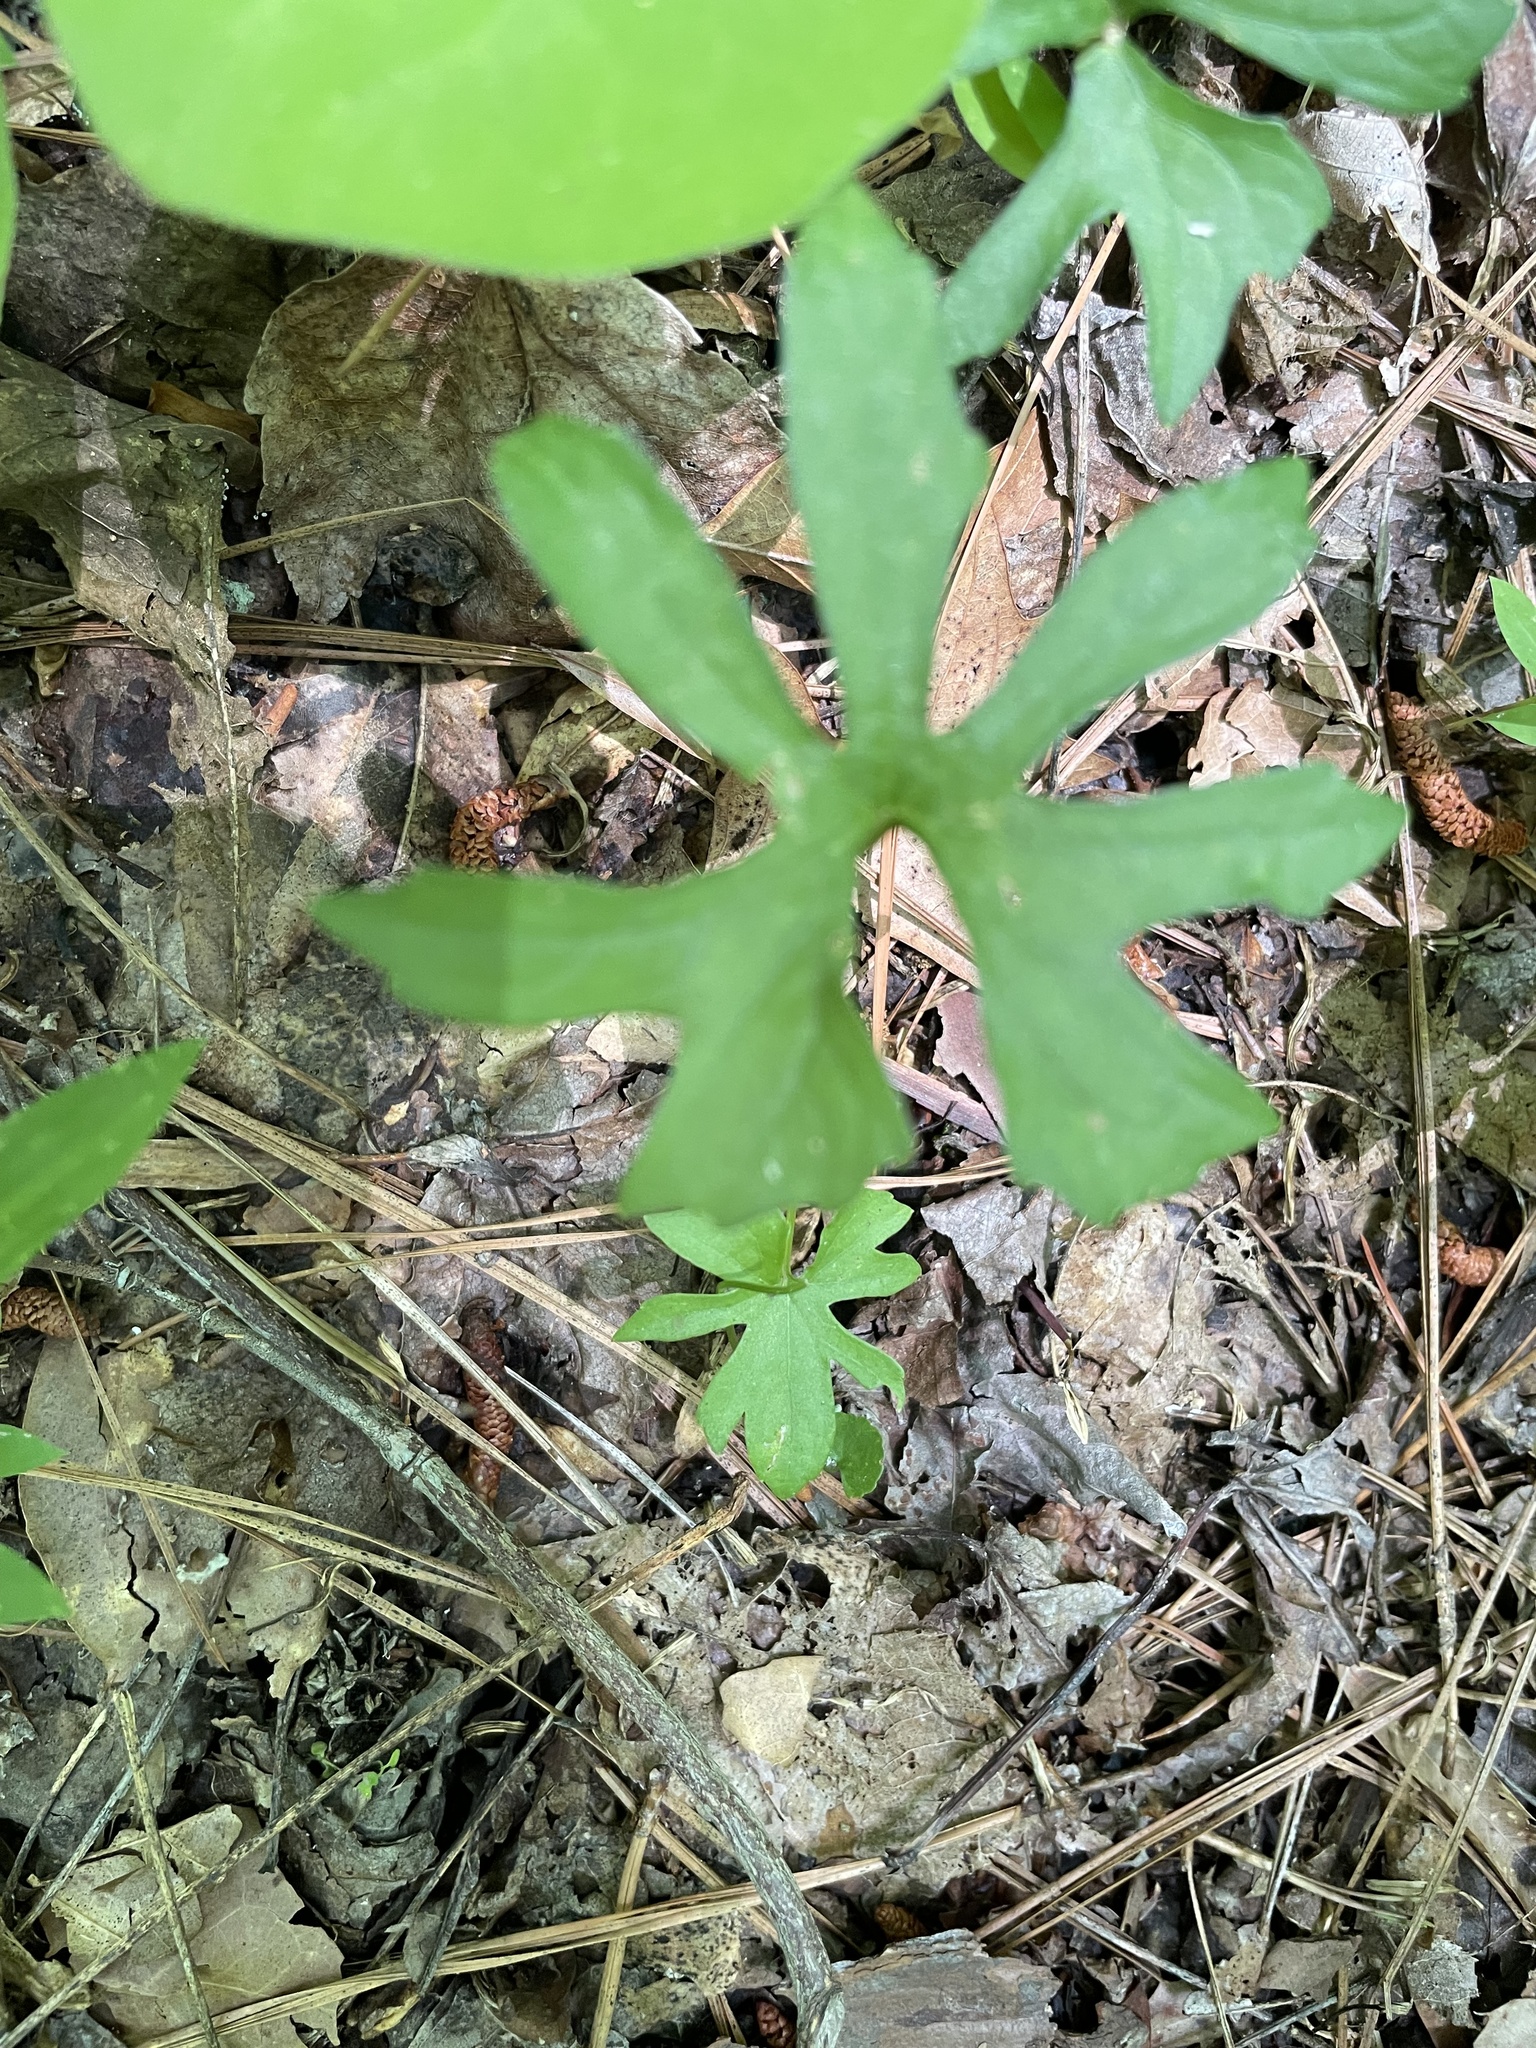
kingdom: Plantae
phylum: Tracheophyta
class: Magnoliopsida
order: Malpighiales
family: Violaceae
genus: Viola
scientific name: Viola palmata
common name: Early blue violet
